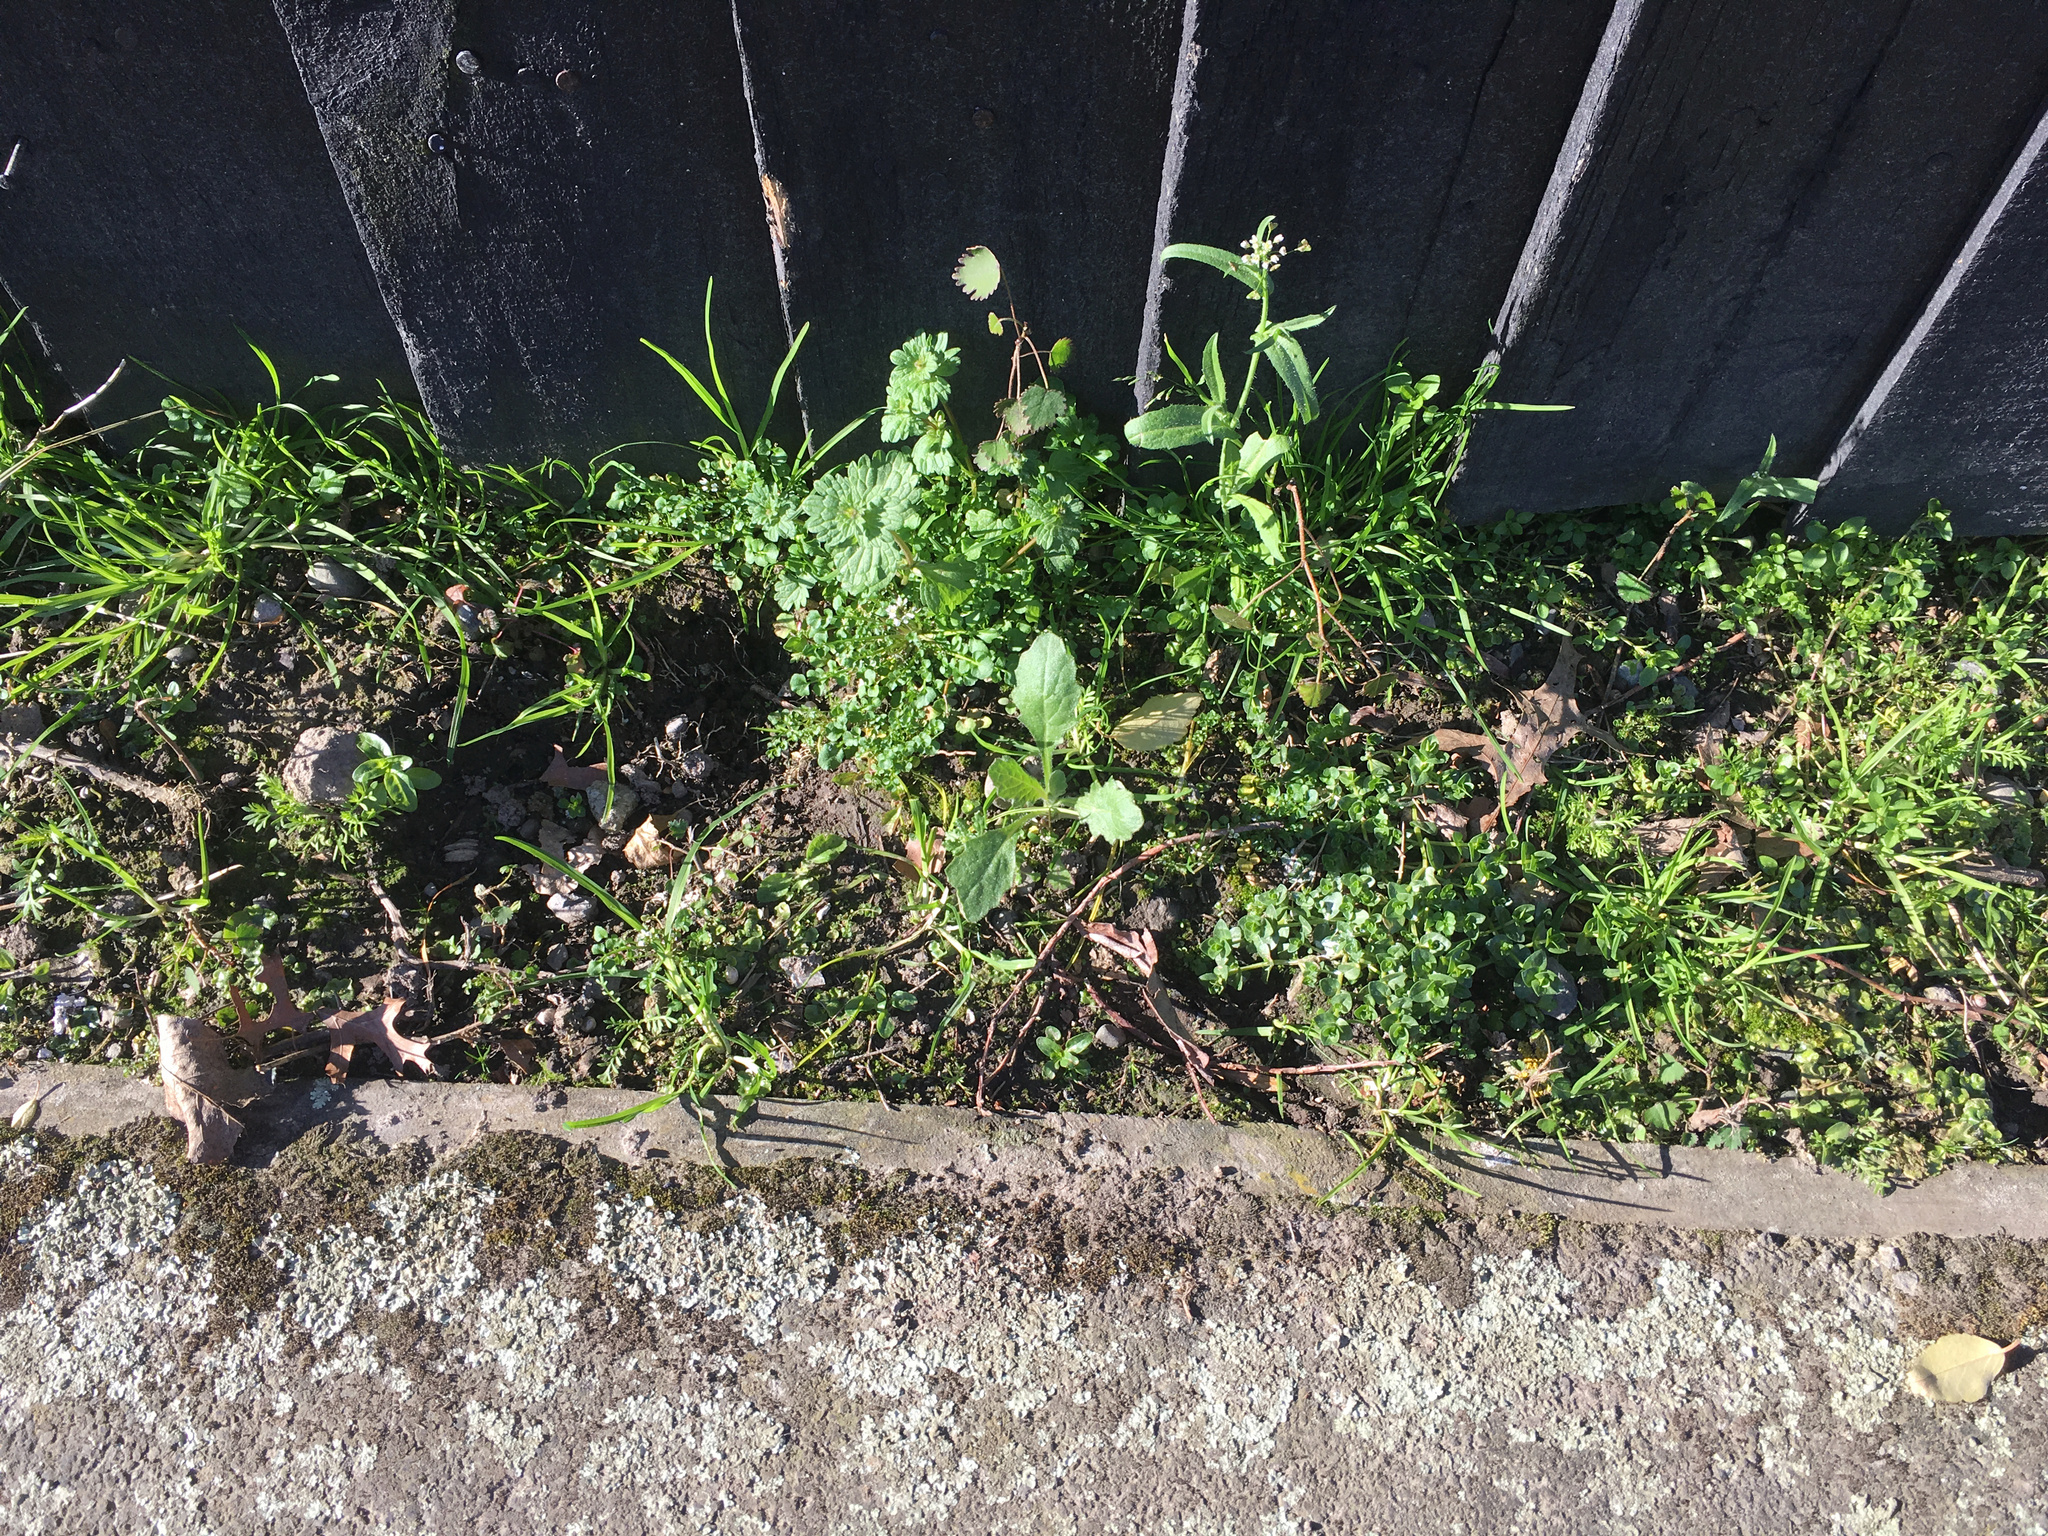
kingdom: Plantae
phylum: Tracheophyta
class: Magnoliopsida
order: Asterales
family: Asteraceae
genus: Senecio
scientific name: Senecio glomeratus
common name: Cutleaf burnweed
